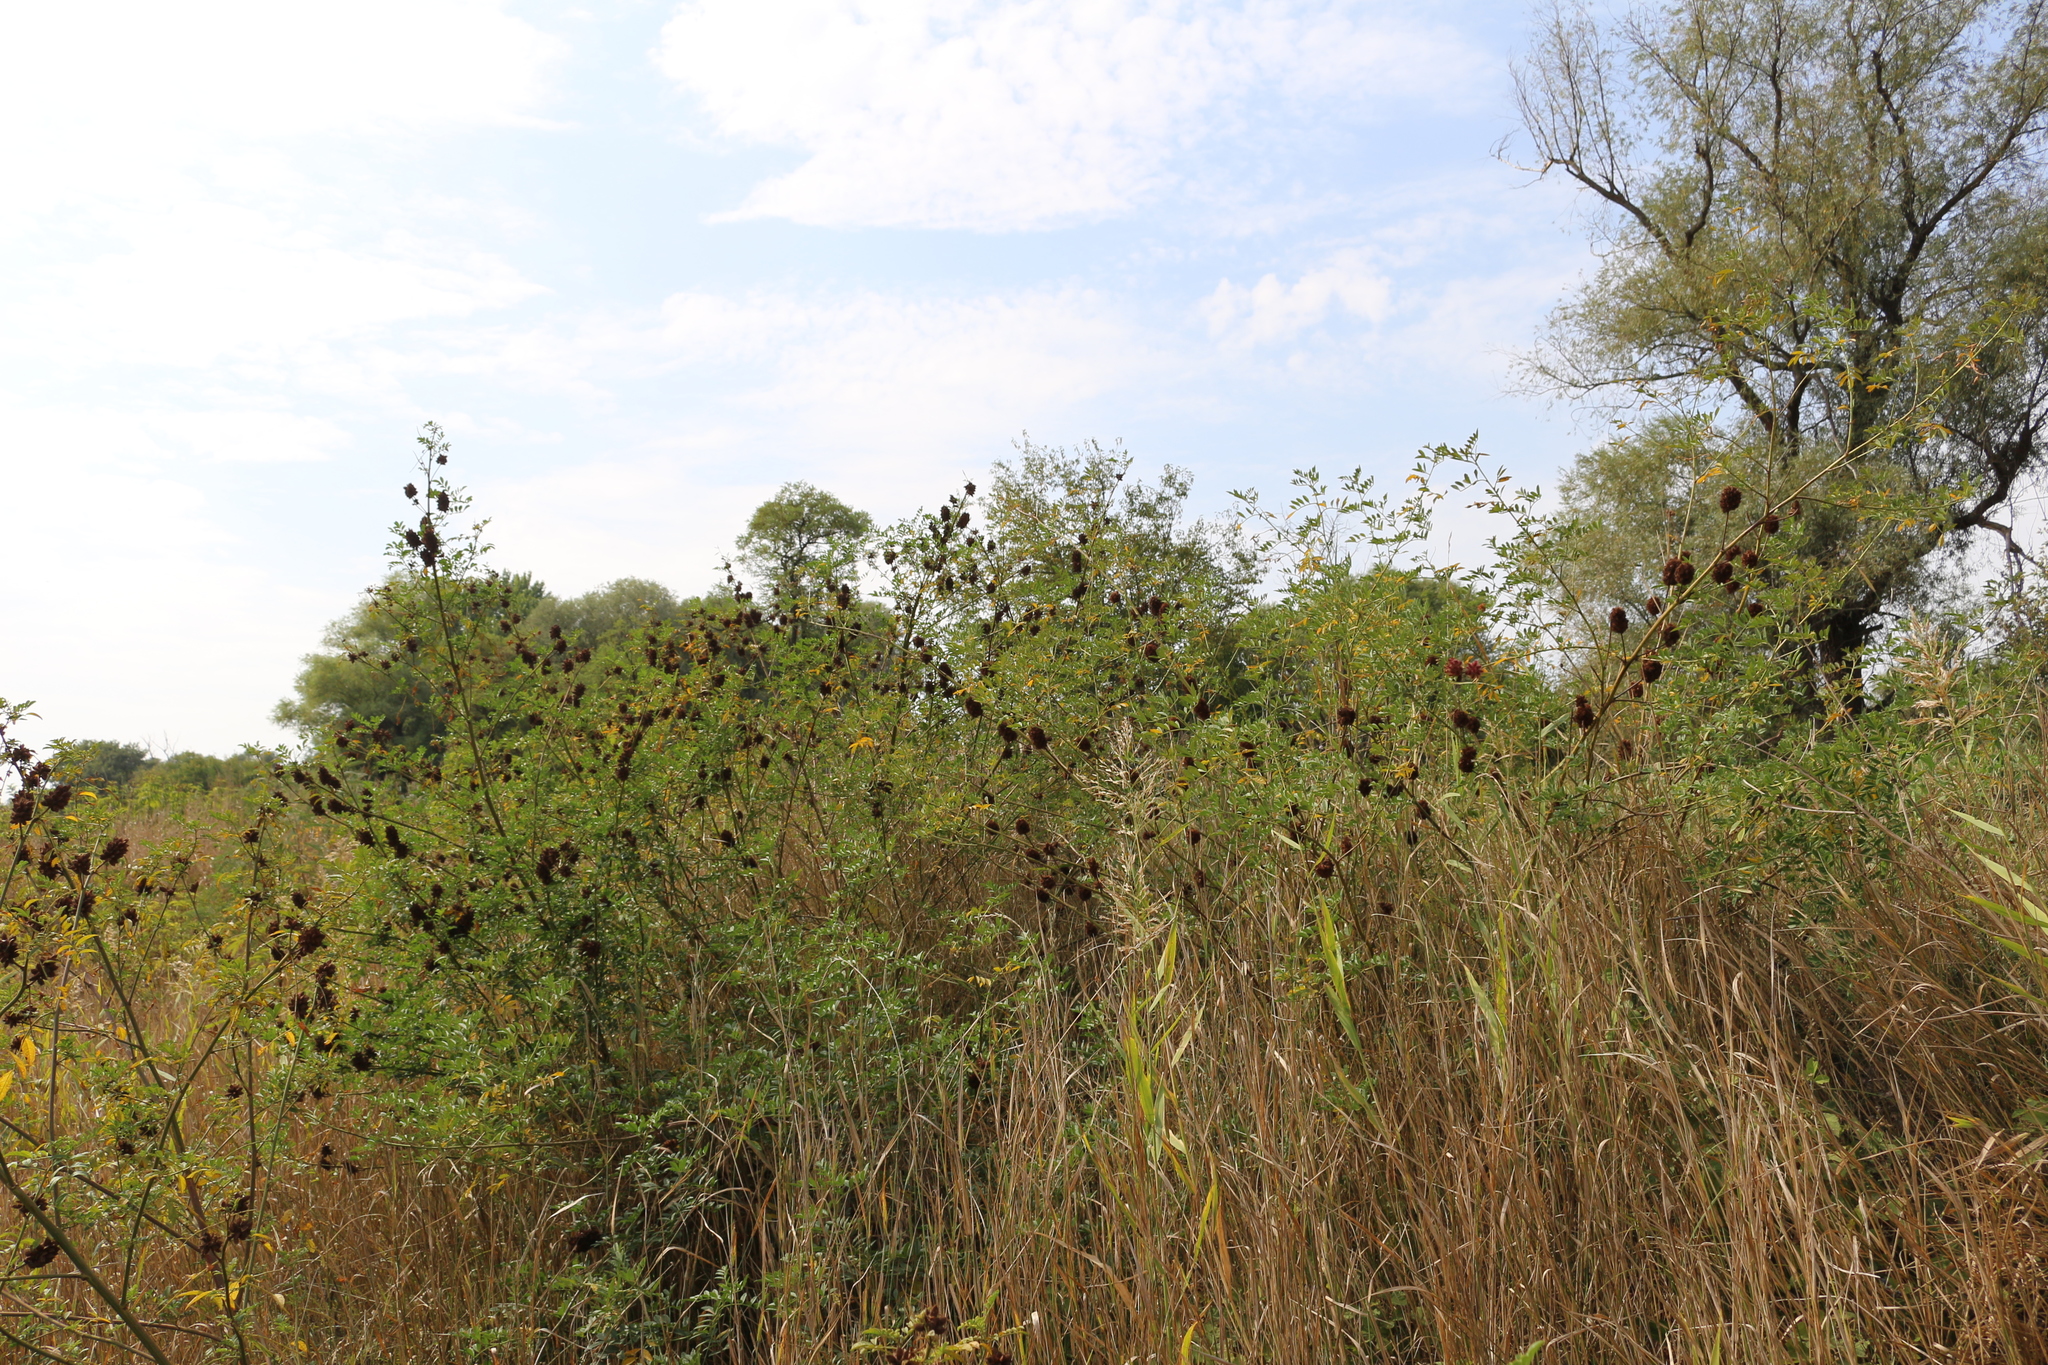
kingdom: Plantae
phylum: Tracheophyta
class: Magnoliopsida
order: Fabales
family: Fabaceae
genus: Glycyrrhiza
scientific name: Glycyrrhiza echinata
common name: German liquorice
